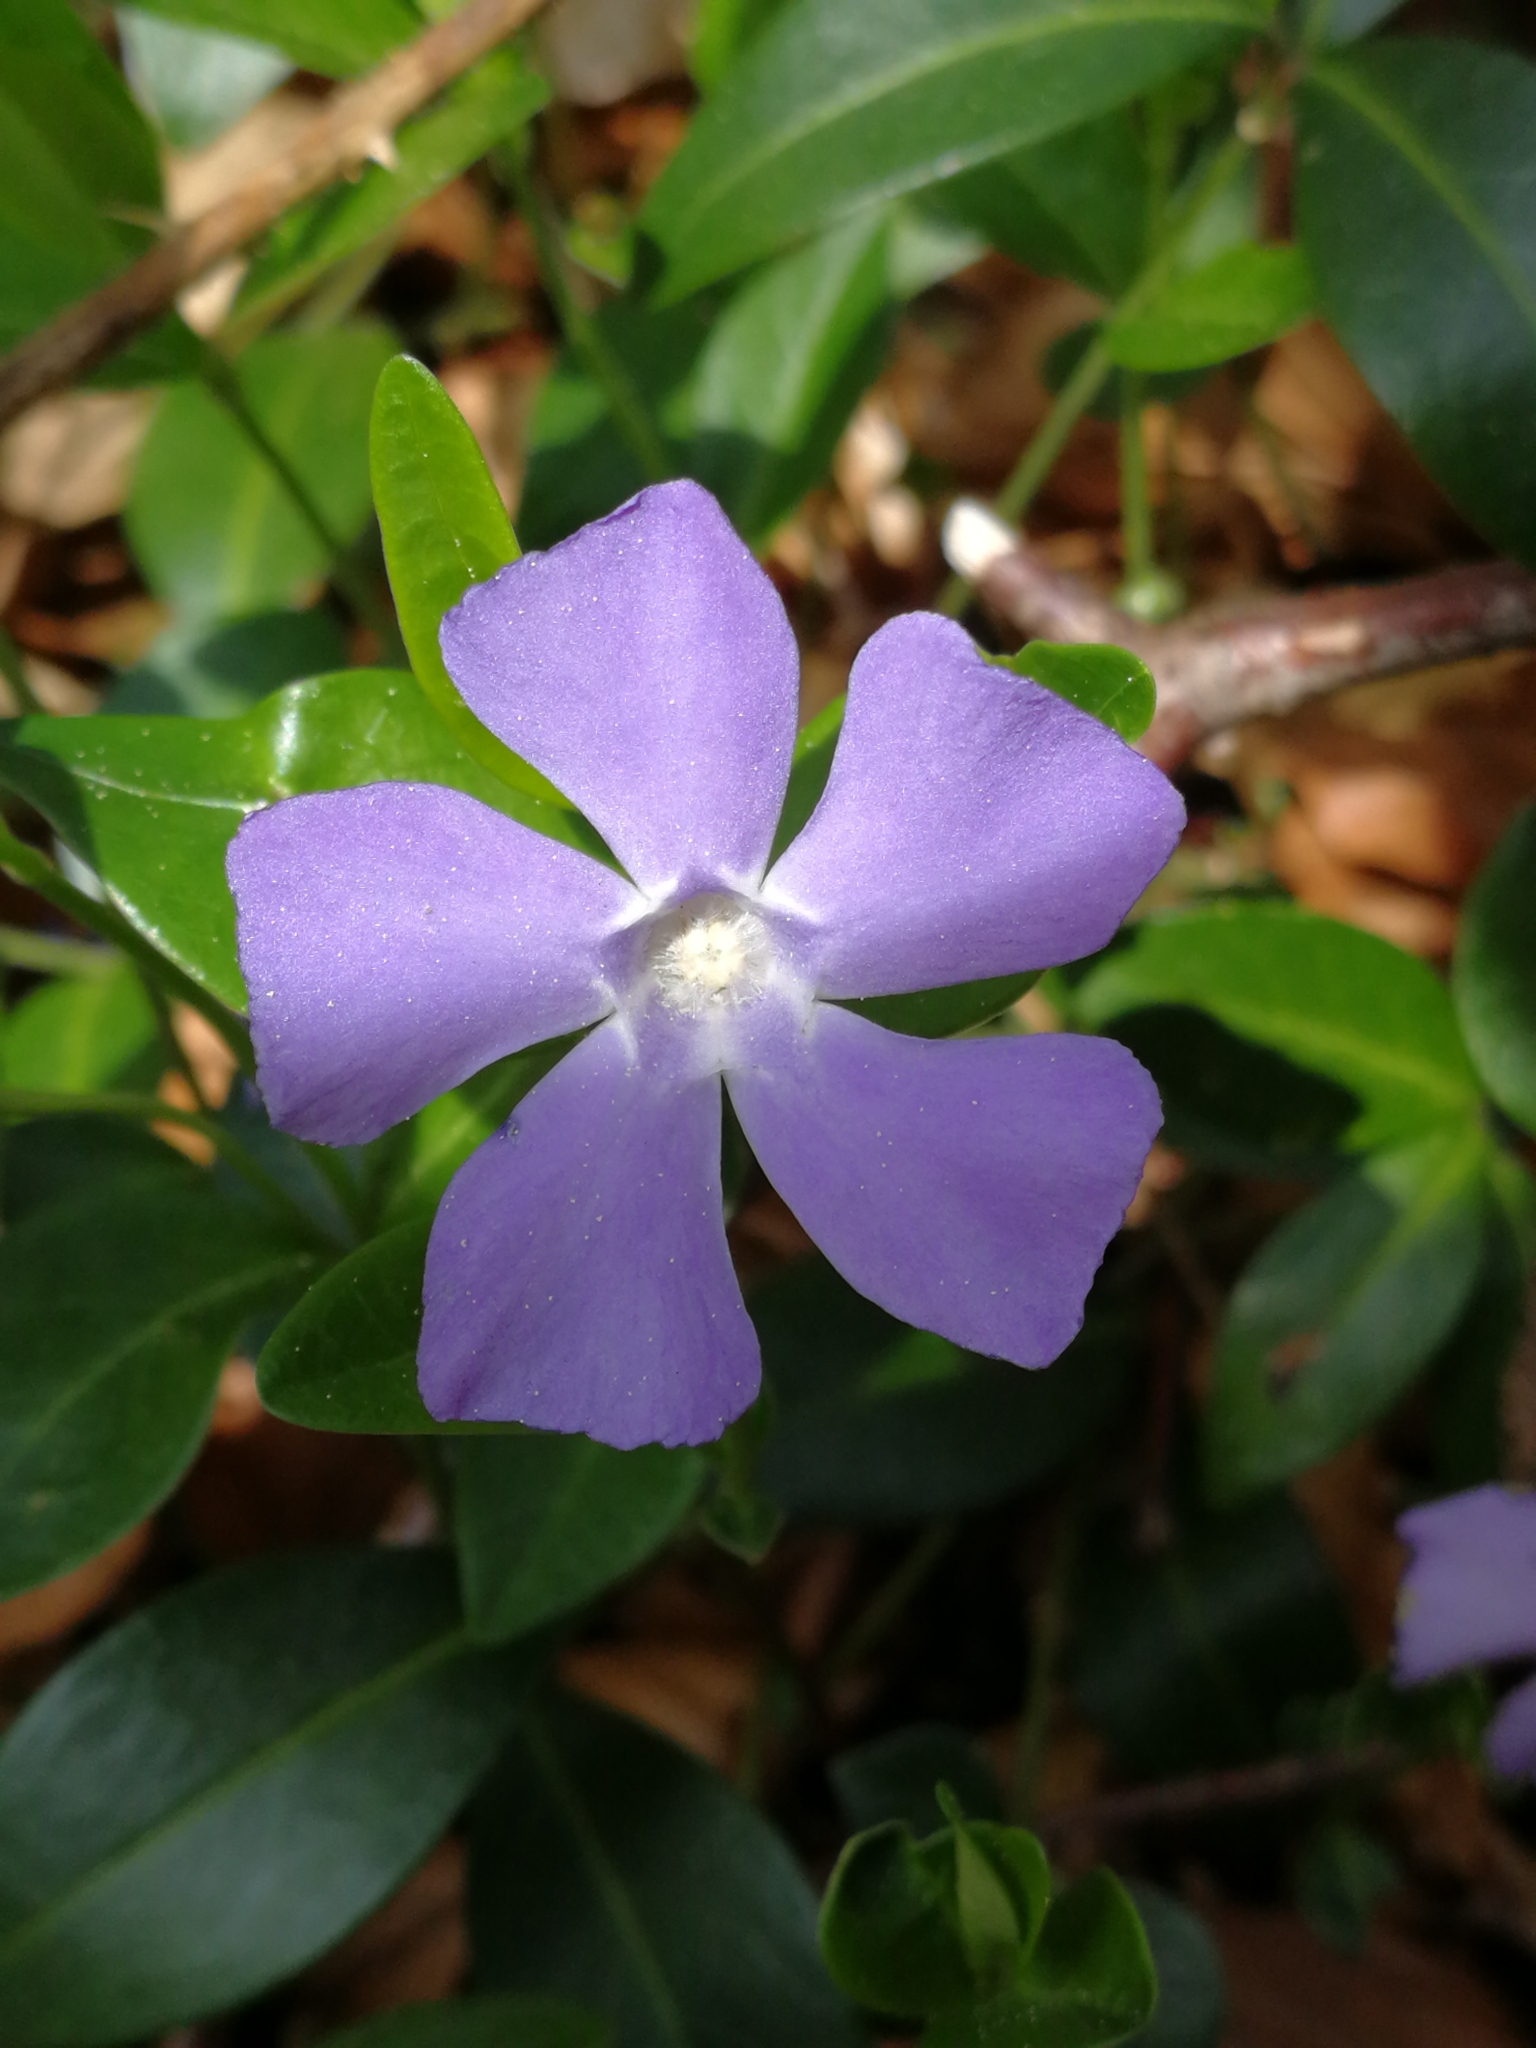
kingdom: Plantae
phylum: Tracheophyta
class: Magnoliopsida
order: Gentianales
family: Apocynaceae
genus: Vinca
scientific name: Vinca minor
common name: Lesser periwinkle
